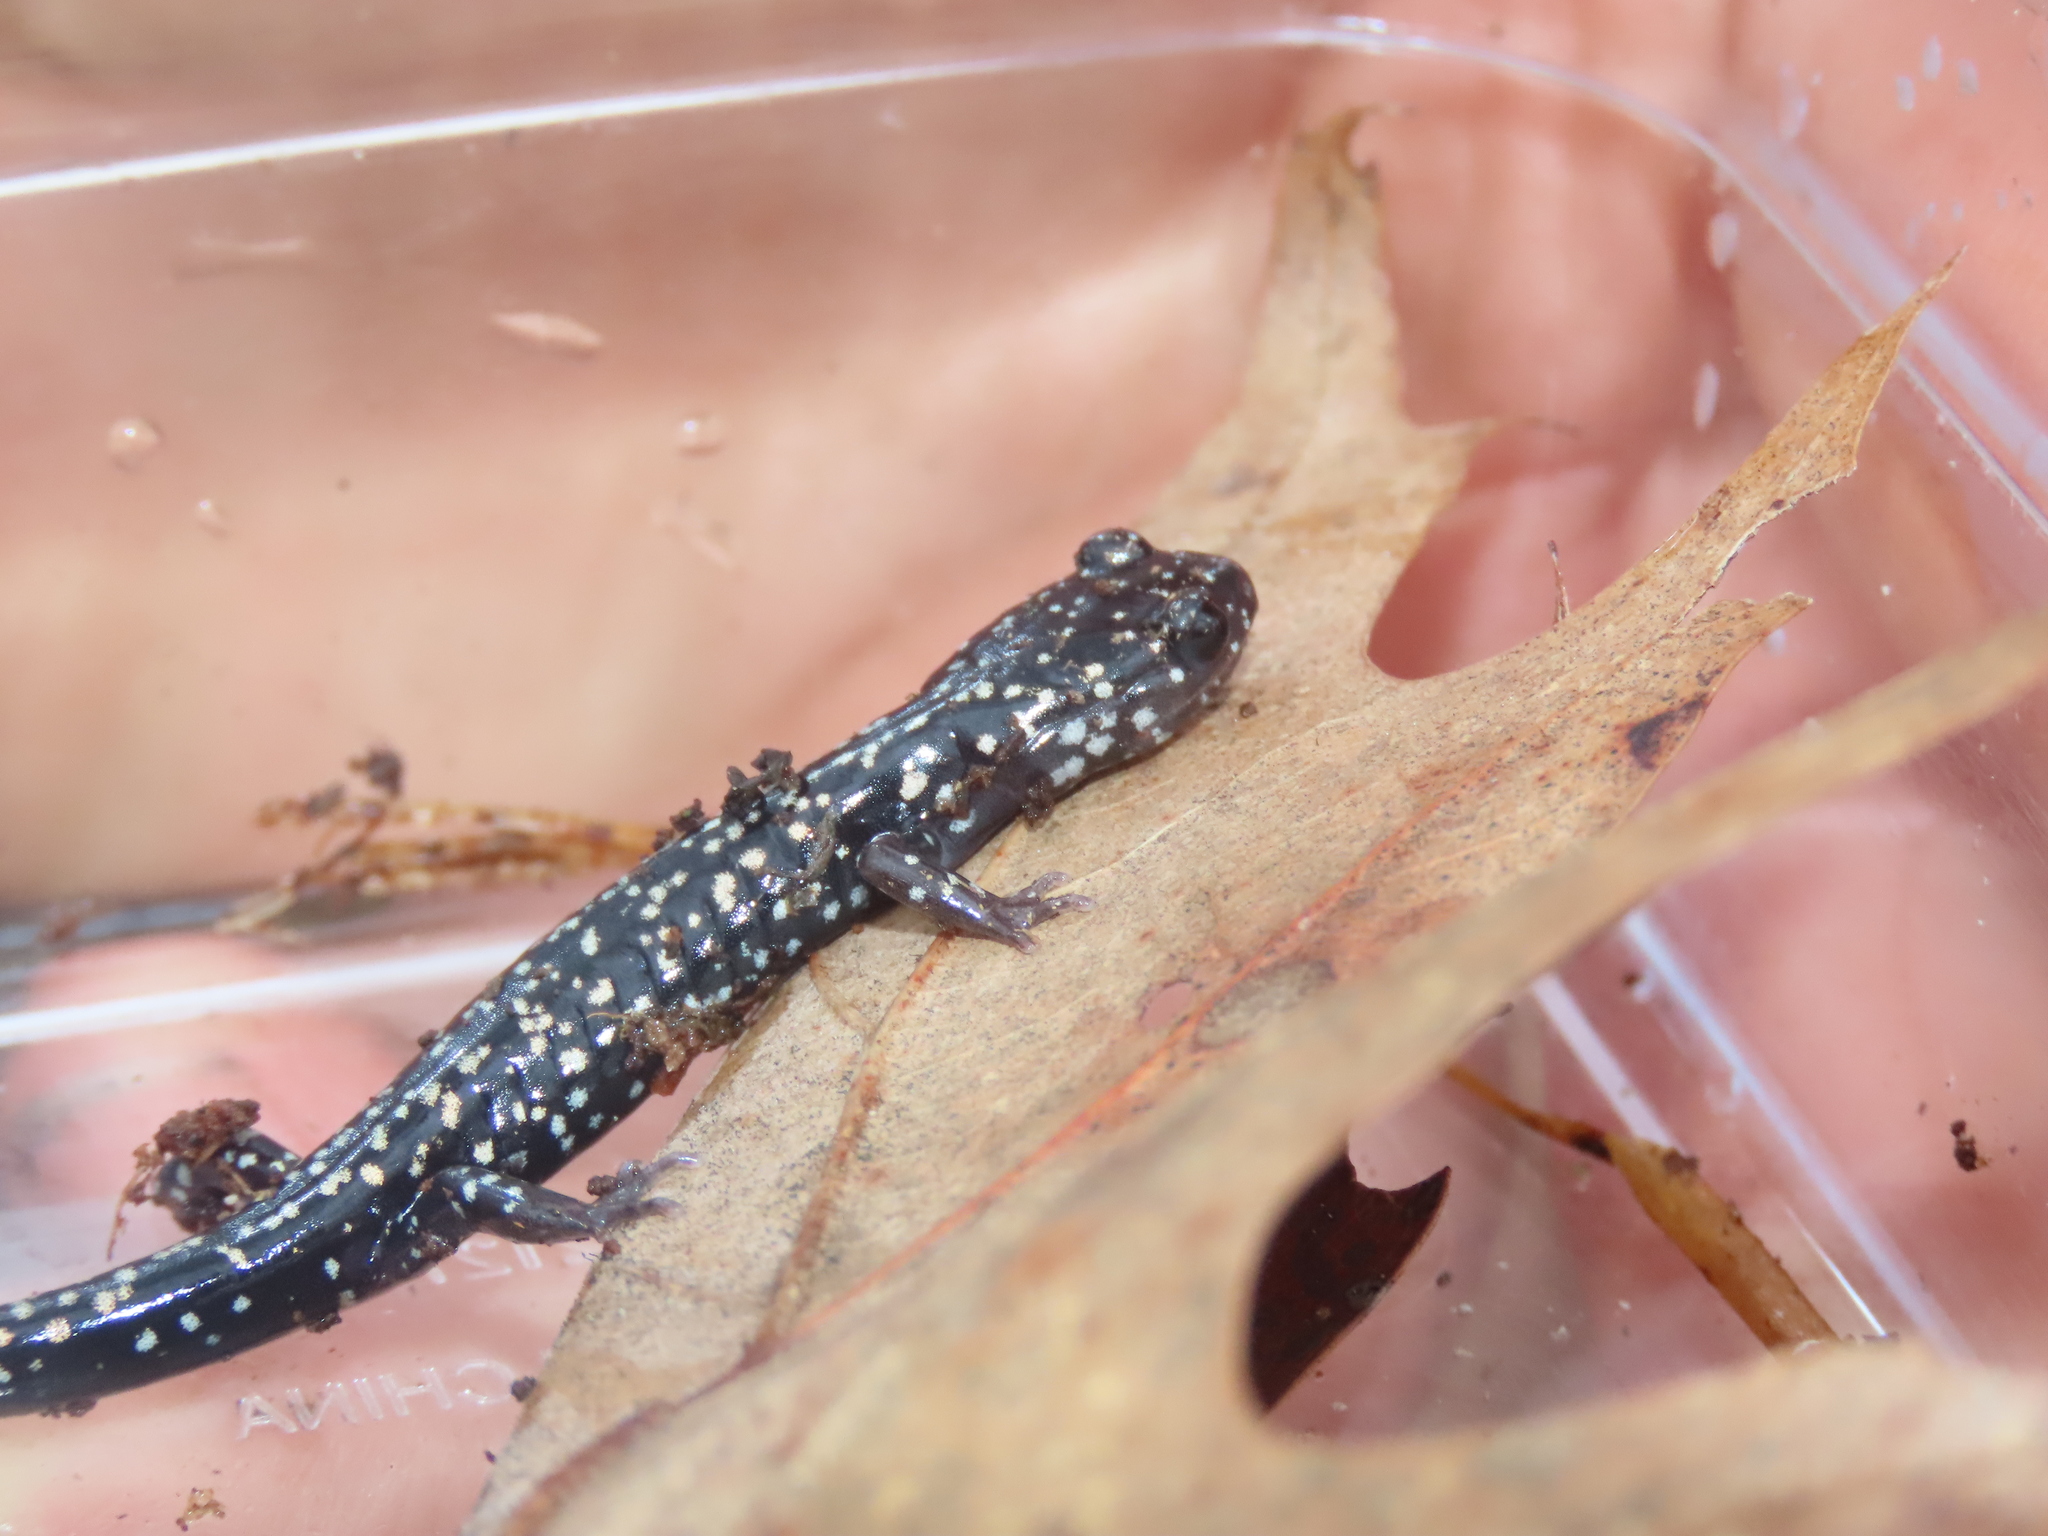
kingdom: Animalia
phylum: Chordata
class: Amphibia
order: Caudata
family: Plethodontidae
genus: Plethodon
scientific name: Plethodon glutinosus
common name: Northern slimy salamander
